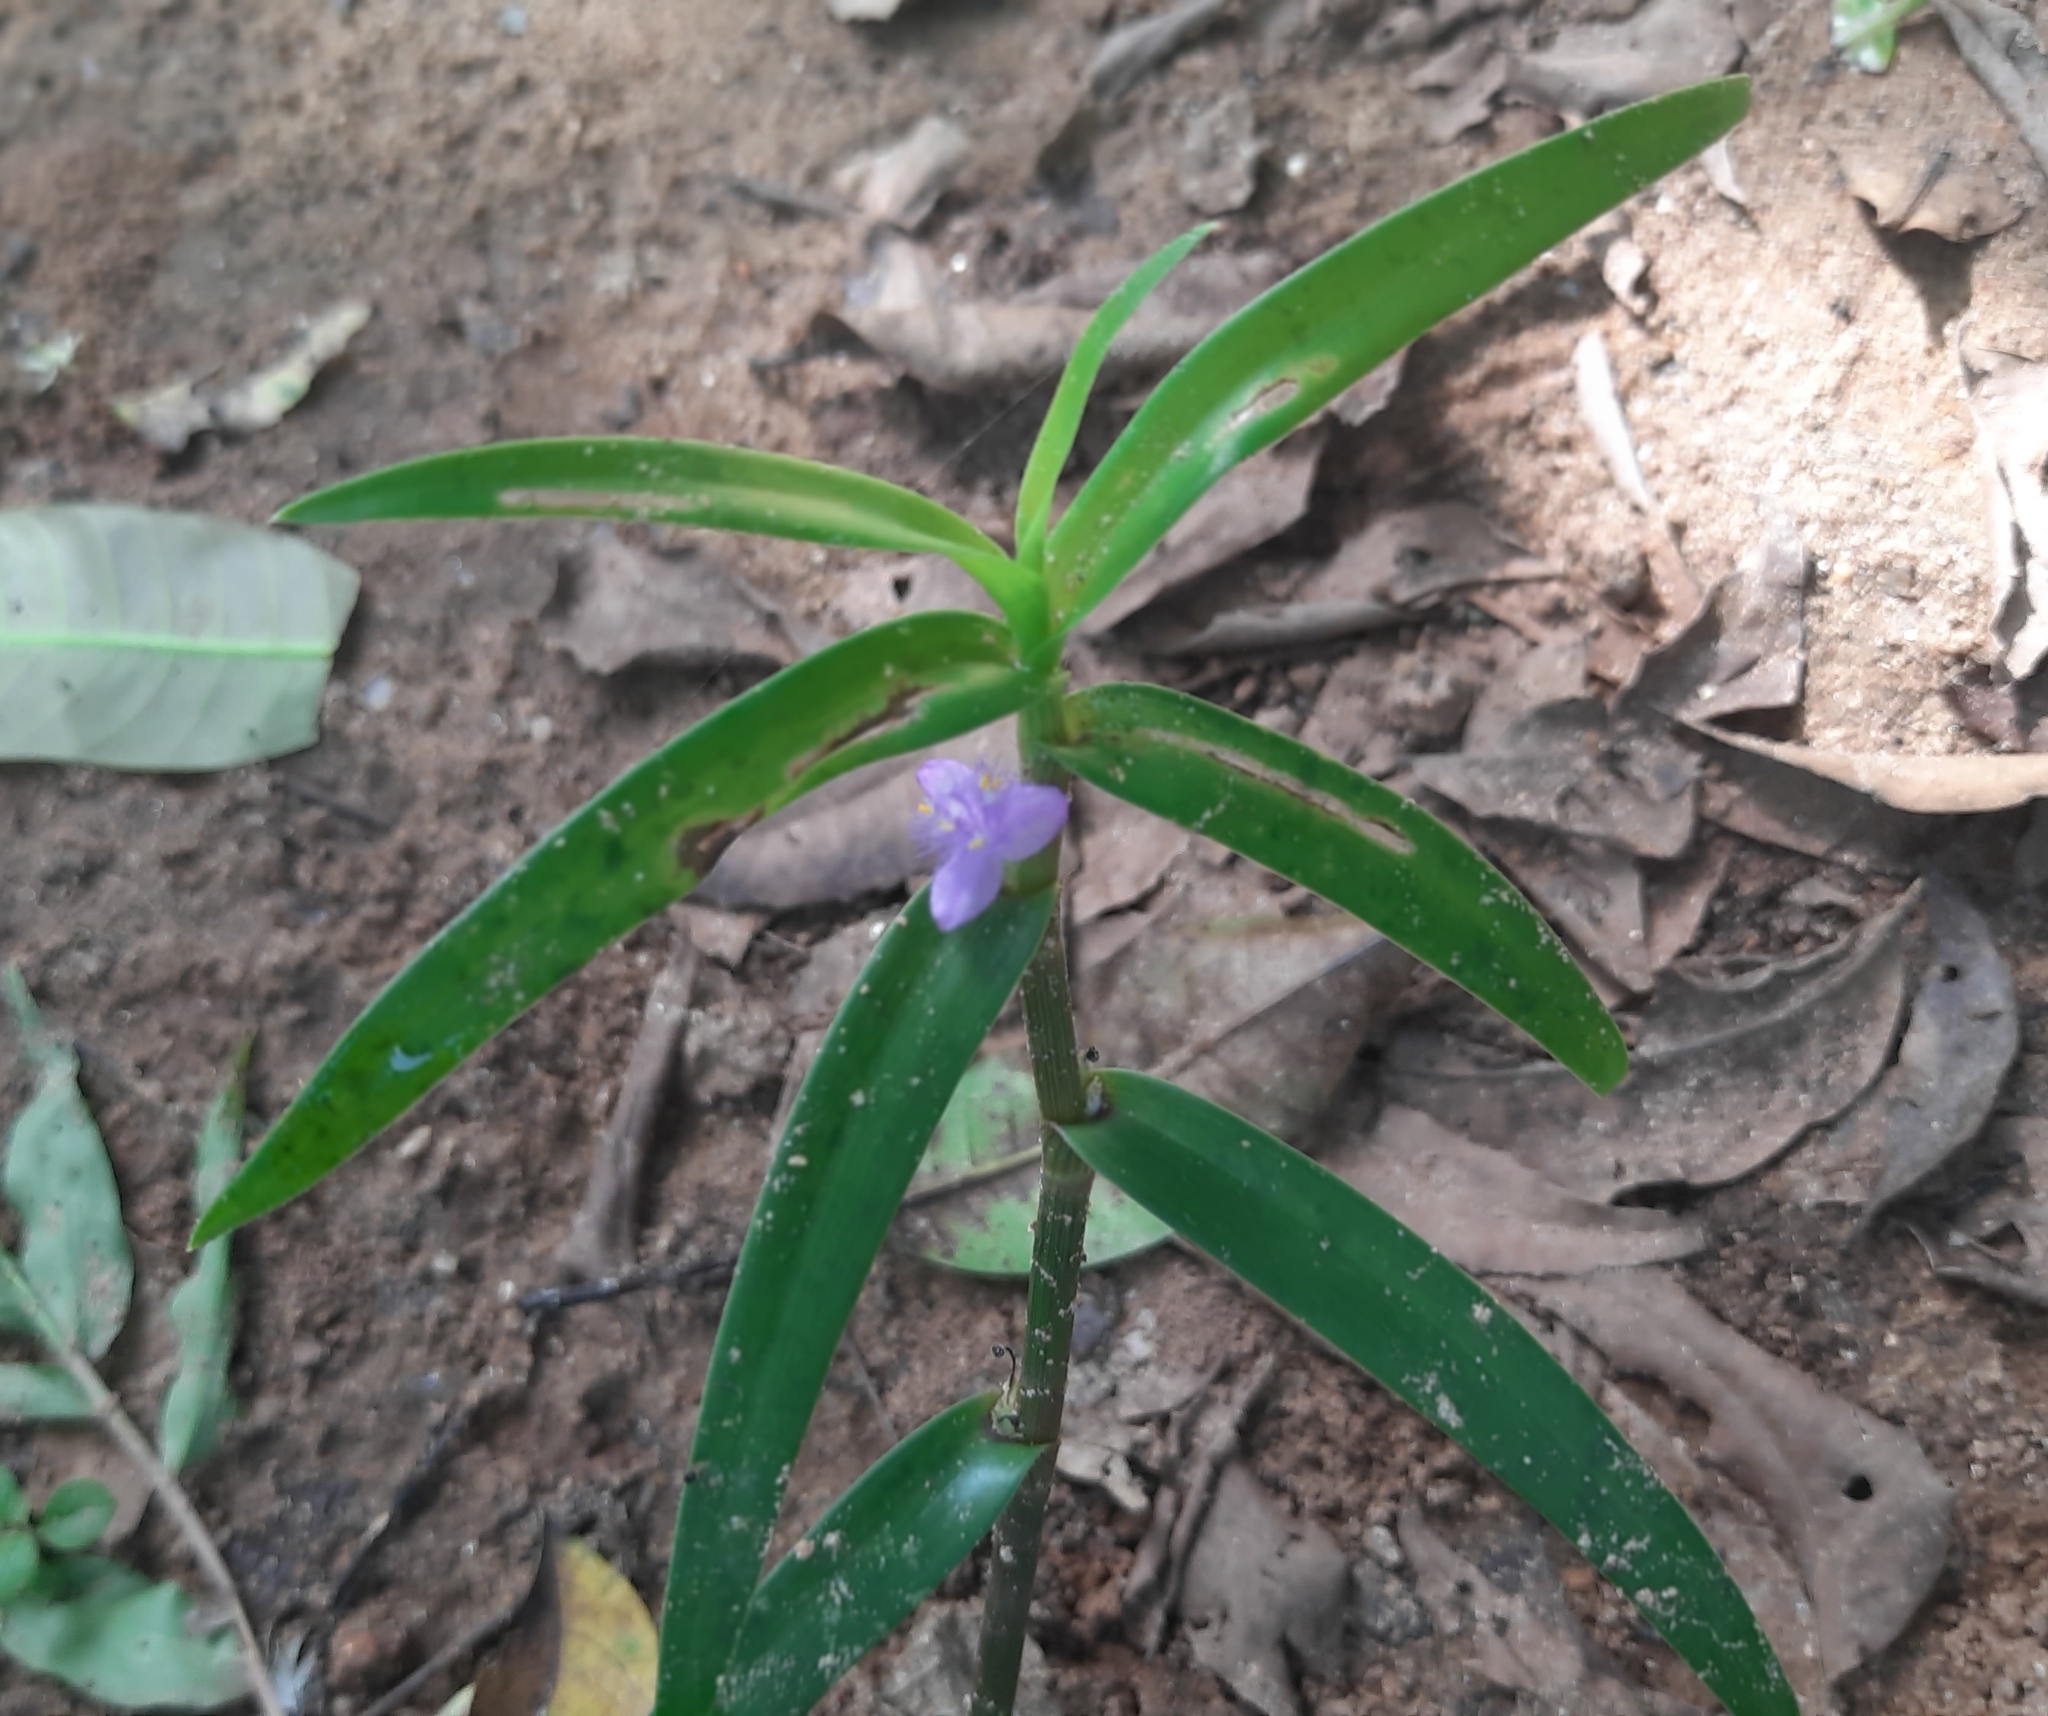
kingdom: Plantae
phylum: Tracheophyta
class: Liliopsida
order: Commelinales
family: Commelinaceae
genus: Cyanotis
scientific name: Cyanotis axillaris
